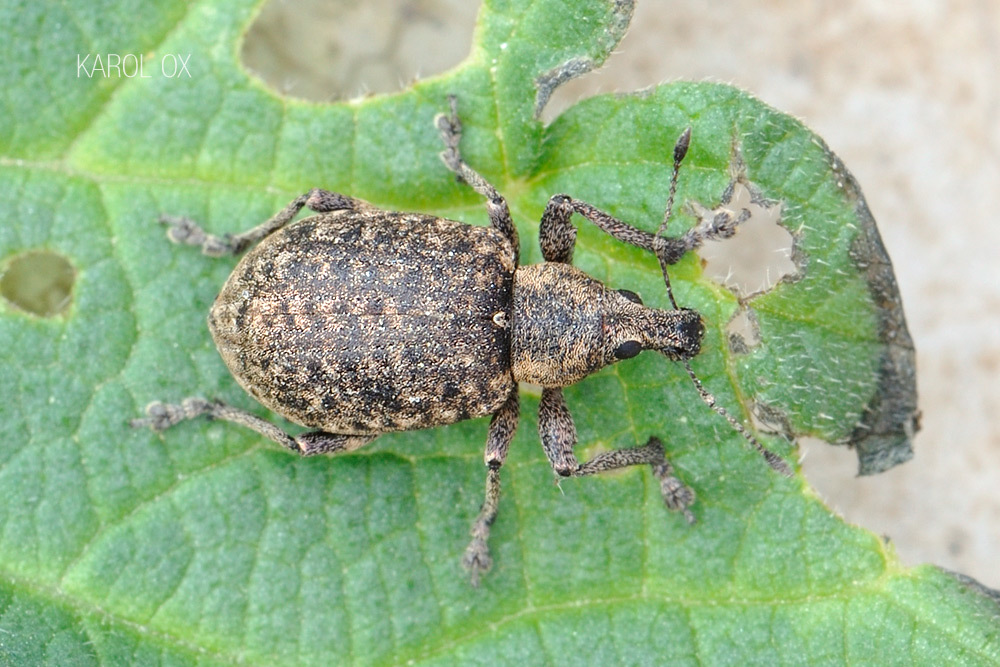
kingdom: Animalia
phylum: Arthropoda
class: Insecta
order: Coleoptera
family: Curculionidae
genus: Liophloeus
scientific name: Liophloeus tessulatus
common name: Weevil
